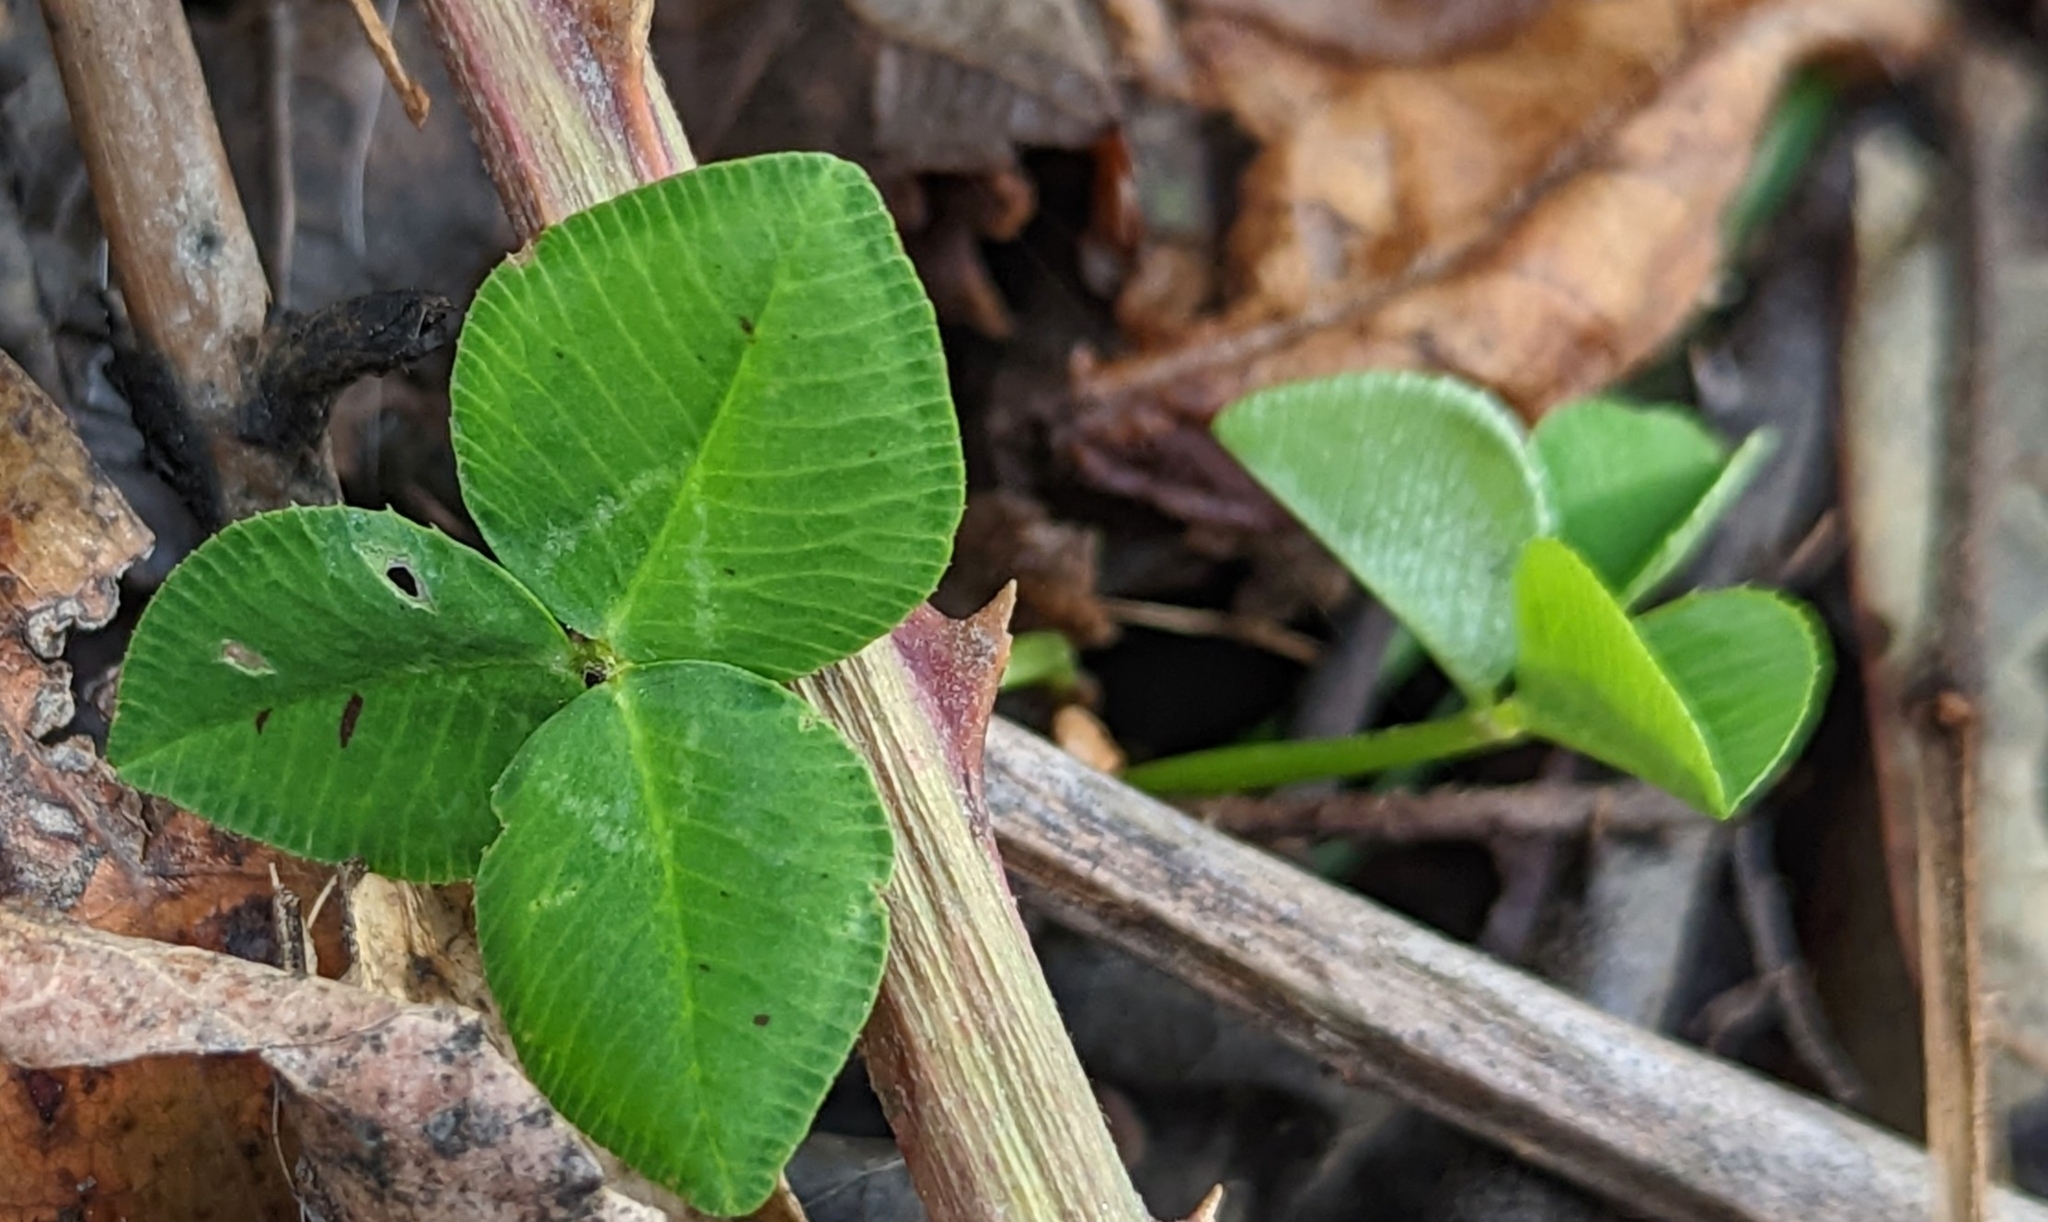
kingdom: Plantae
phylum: Tracheophyta
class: Magnoliopsida
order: Fabales
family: Fabaceae
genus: Trifolium
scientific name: Trifolium repens
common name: White clover
